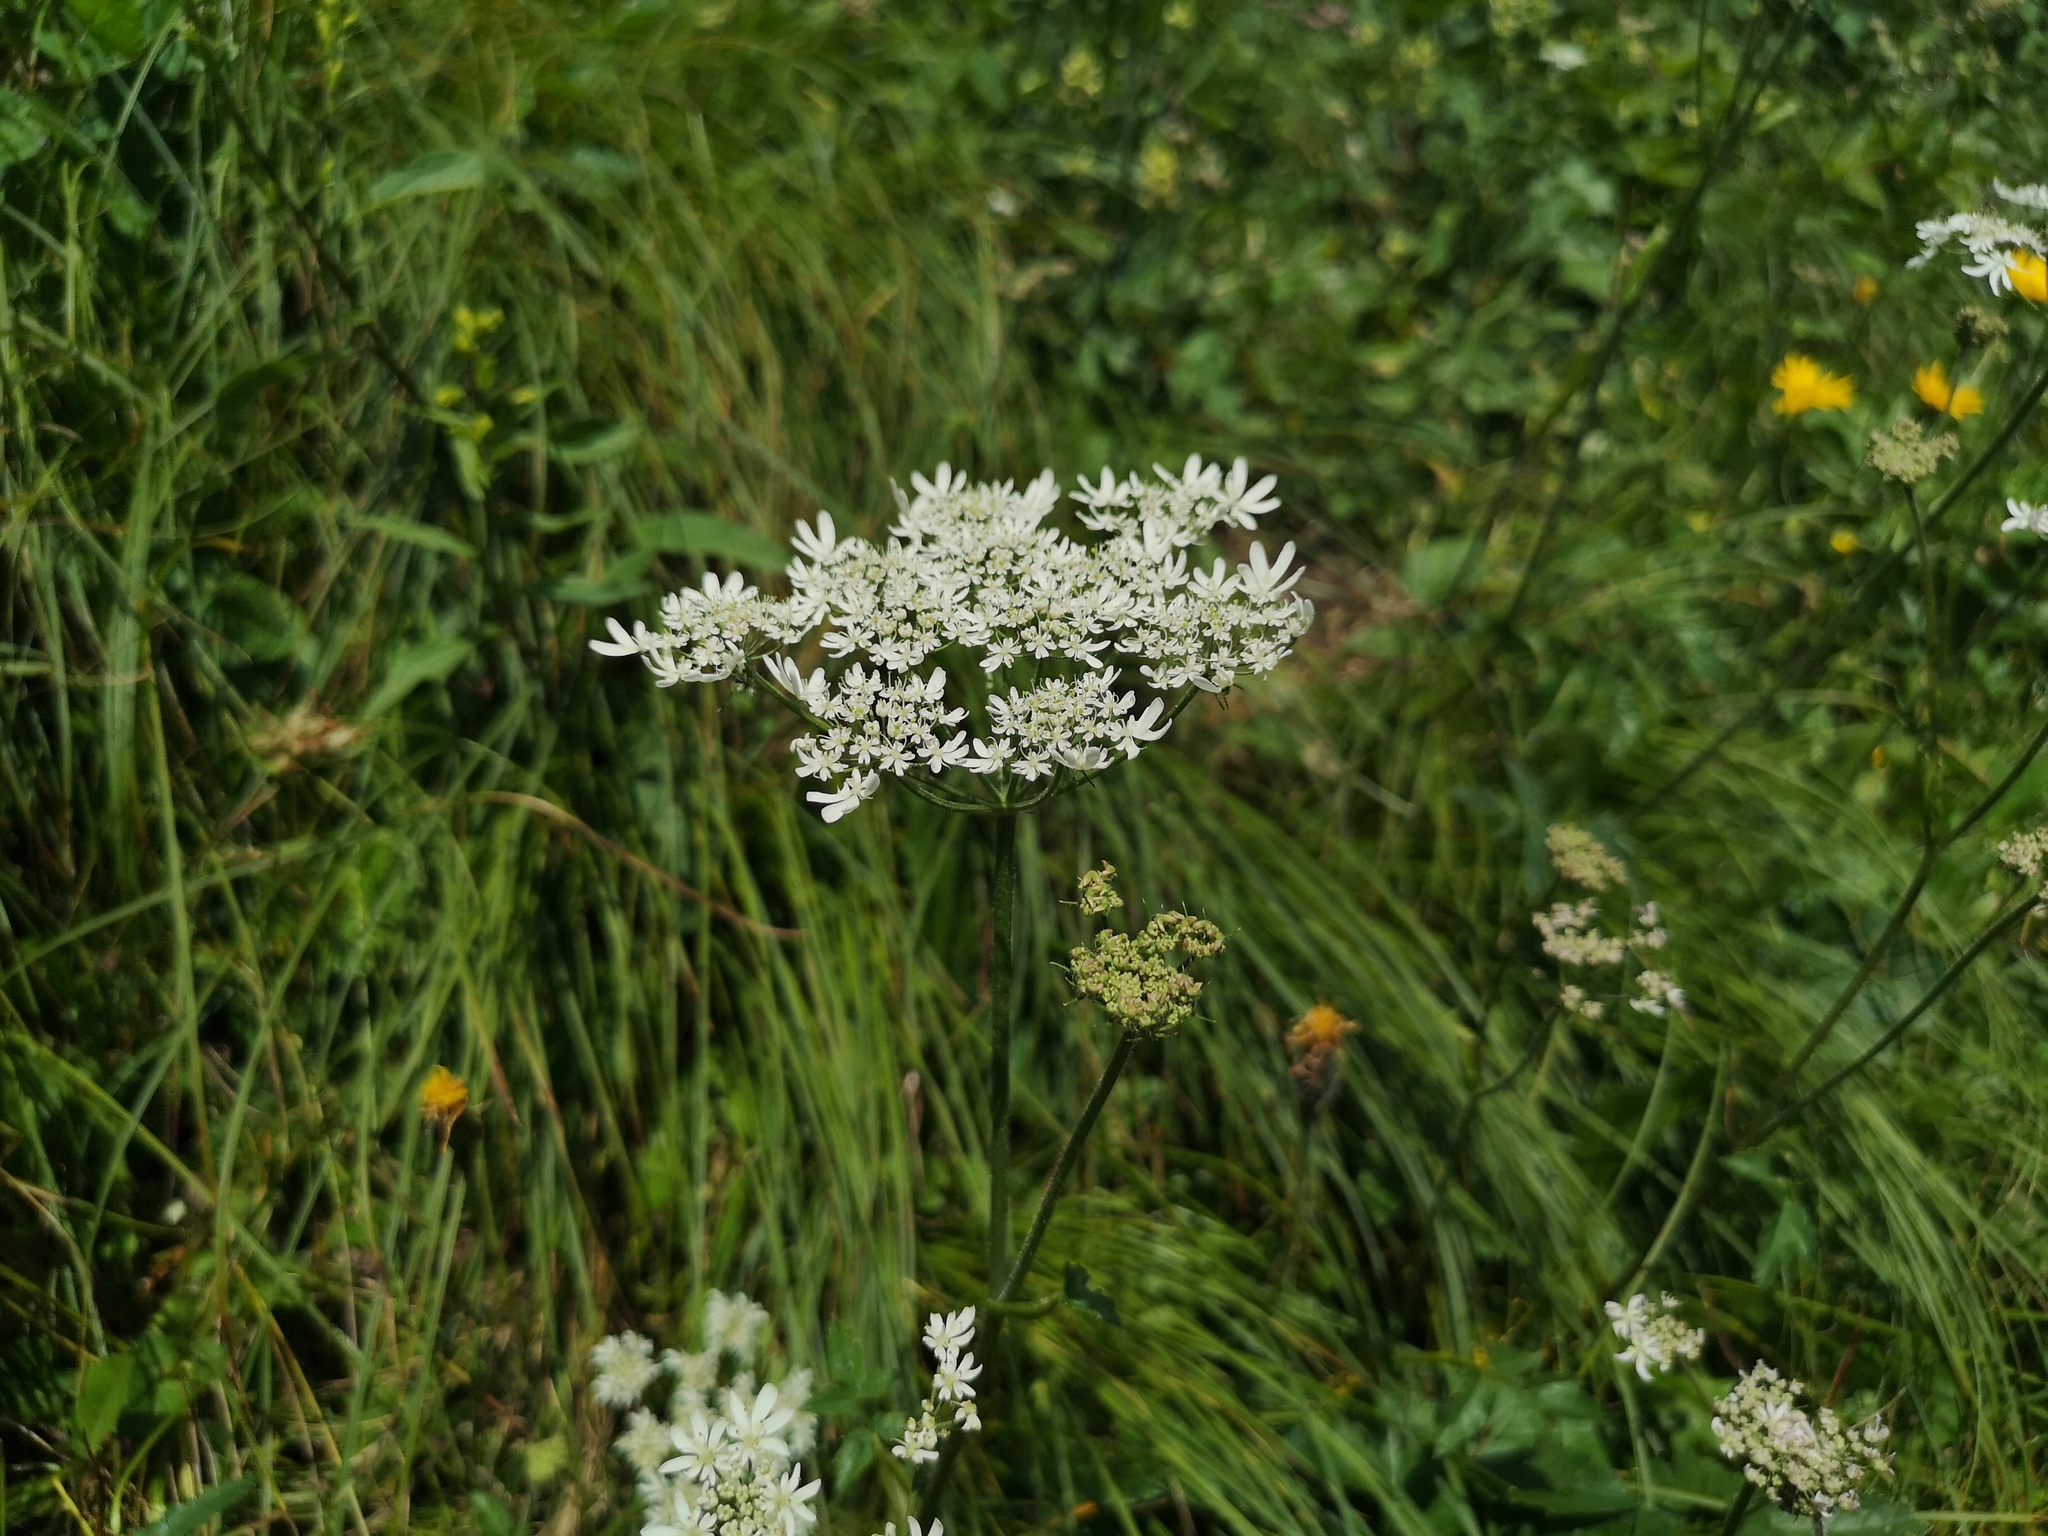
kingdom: Plantae
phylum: Tracheophyta
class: Magnoliopsida
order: Apiales
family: Apiaceae
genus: Heracleum
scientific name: Heracleum austriacum
